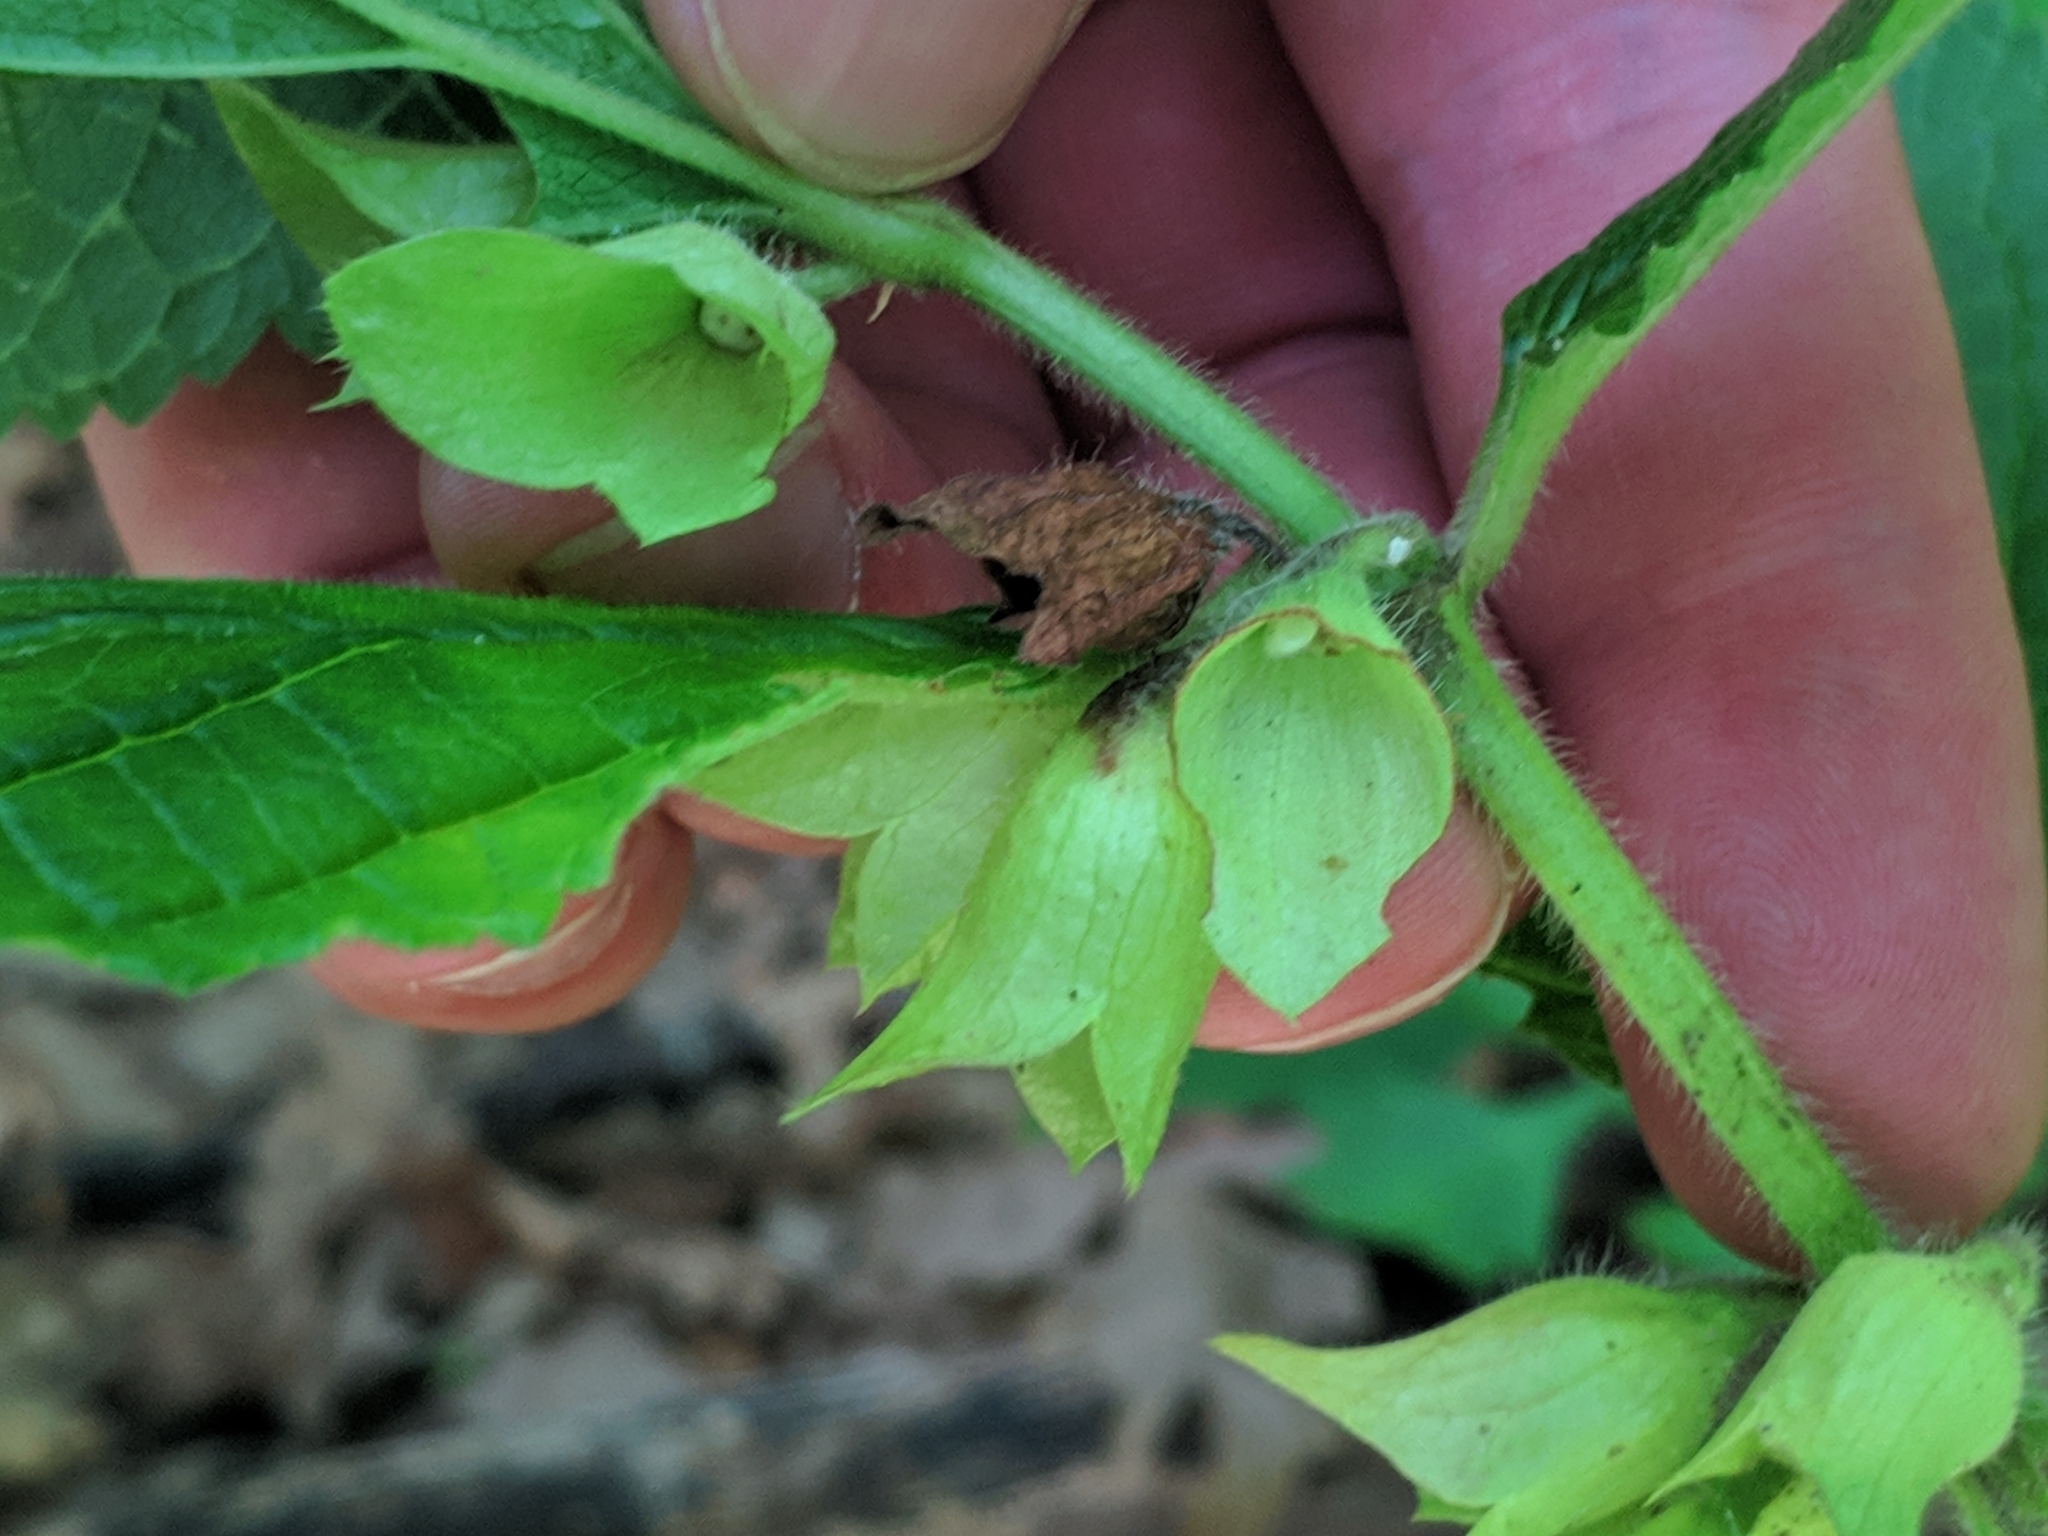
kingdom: Plantae
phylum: Tracheophyta
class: Magnoliopsida
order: Lamiales
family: Lamiaceae
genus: Melittis
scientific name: Melittis melissophyllum
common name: Bastard balm
